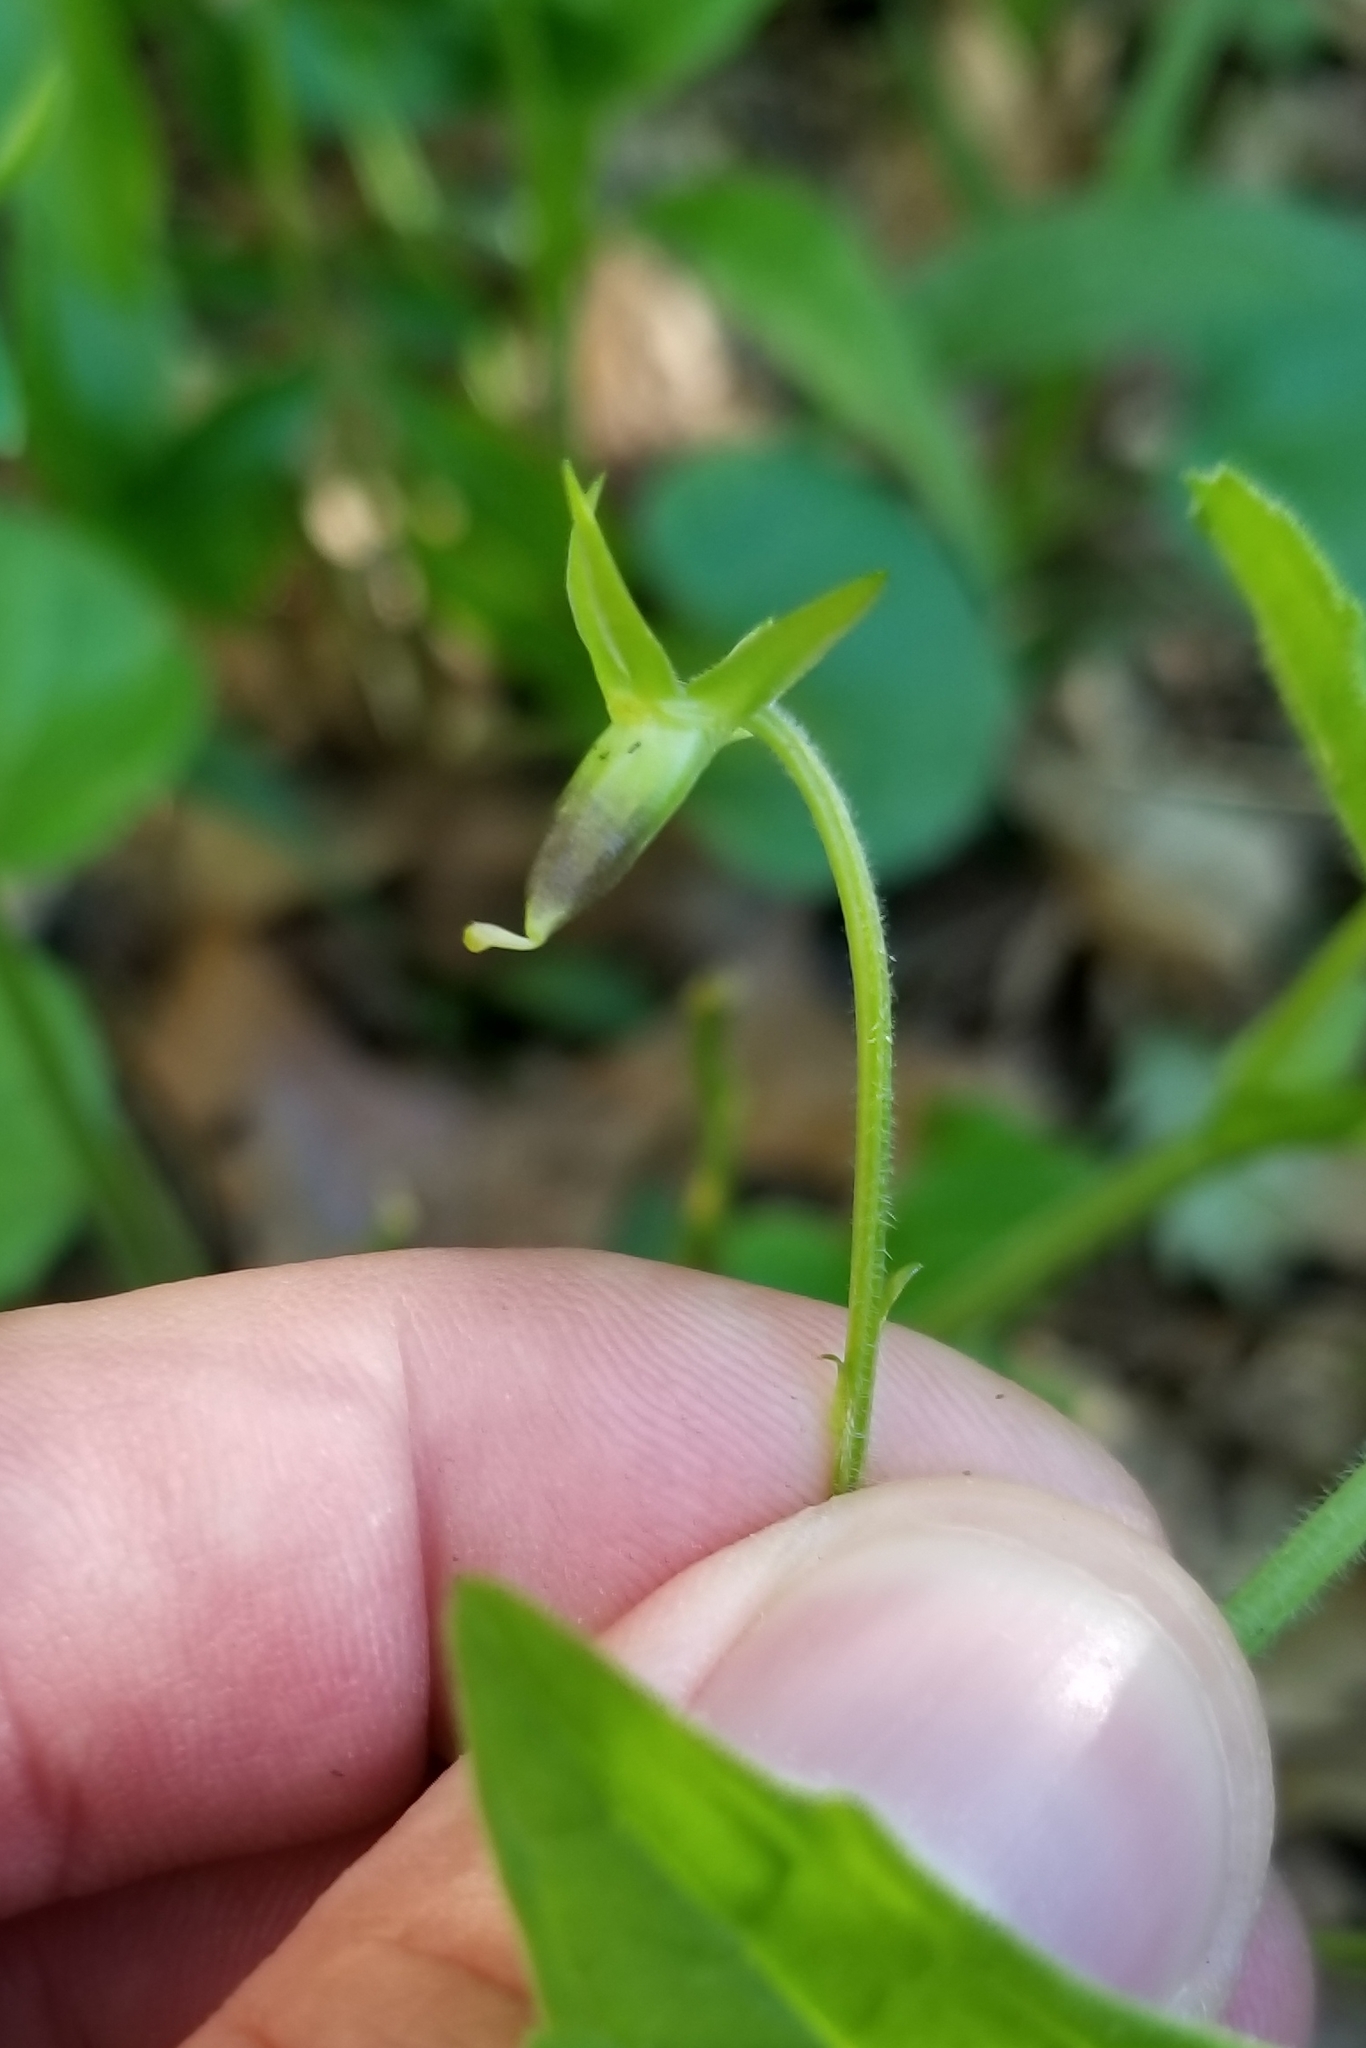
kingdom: Plantae
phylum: Tracheophyta
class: Magnoliopsida
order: Malpighiales
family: Violaceae
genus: Viola
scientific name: Viola eriocarpa
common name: Smooth yellow violet
